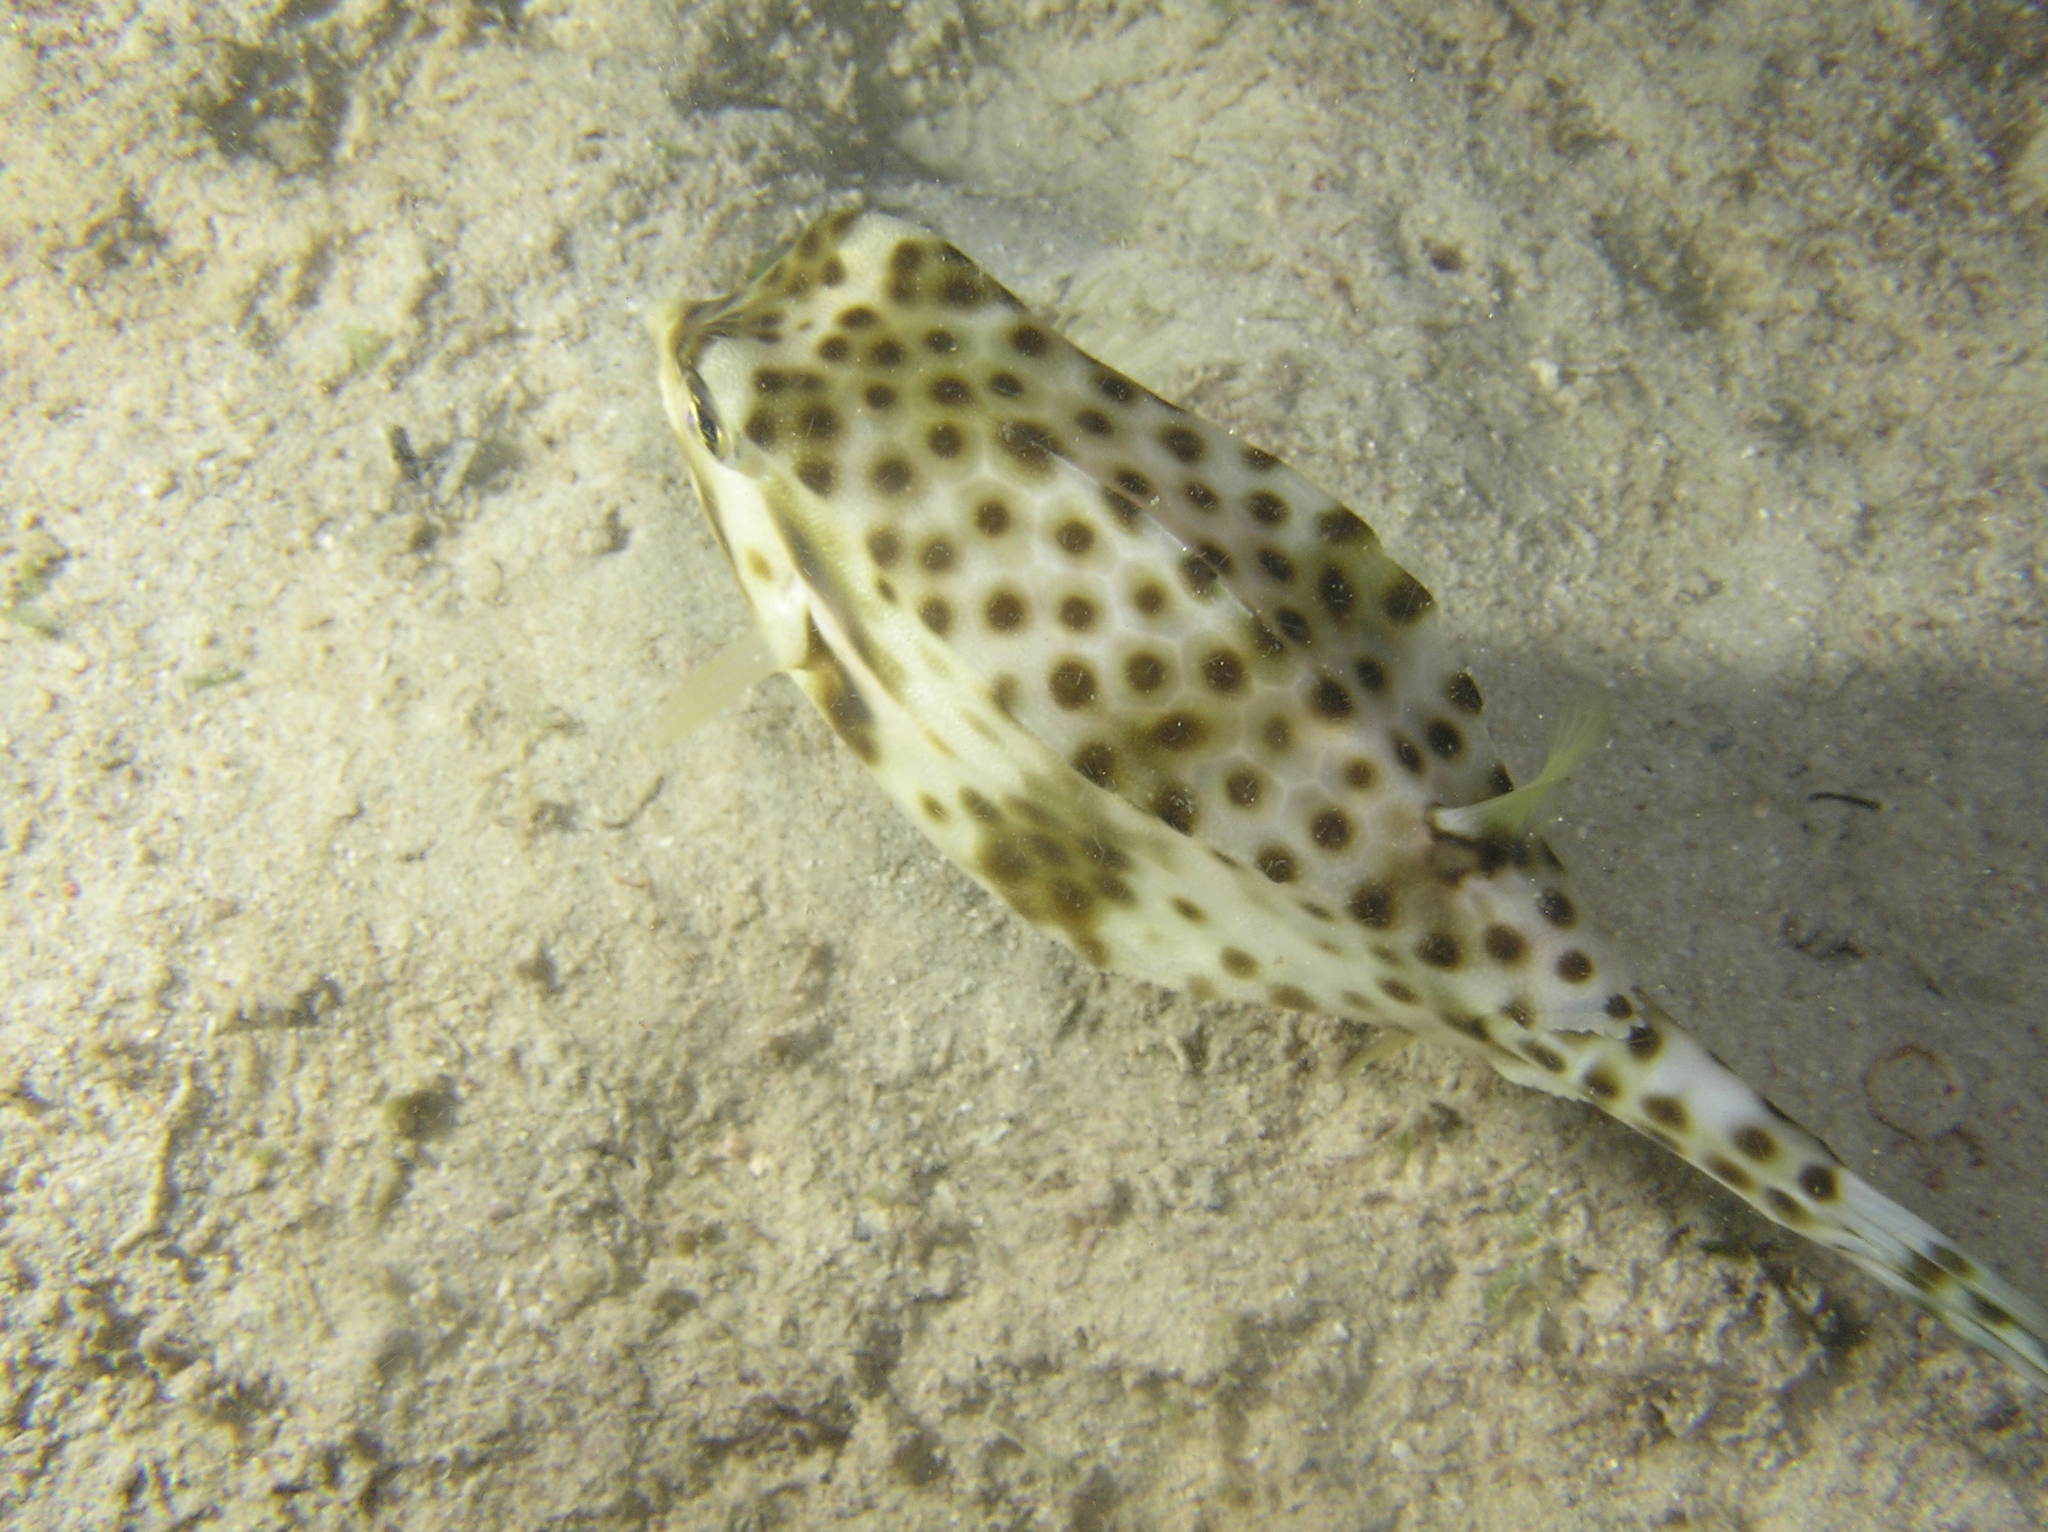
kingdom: Animalia
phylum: Chordata
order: Tetraodontiformes
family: Ostraciidae
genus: Rhynchostracion
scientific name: Rhynchostracion nasus
